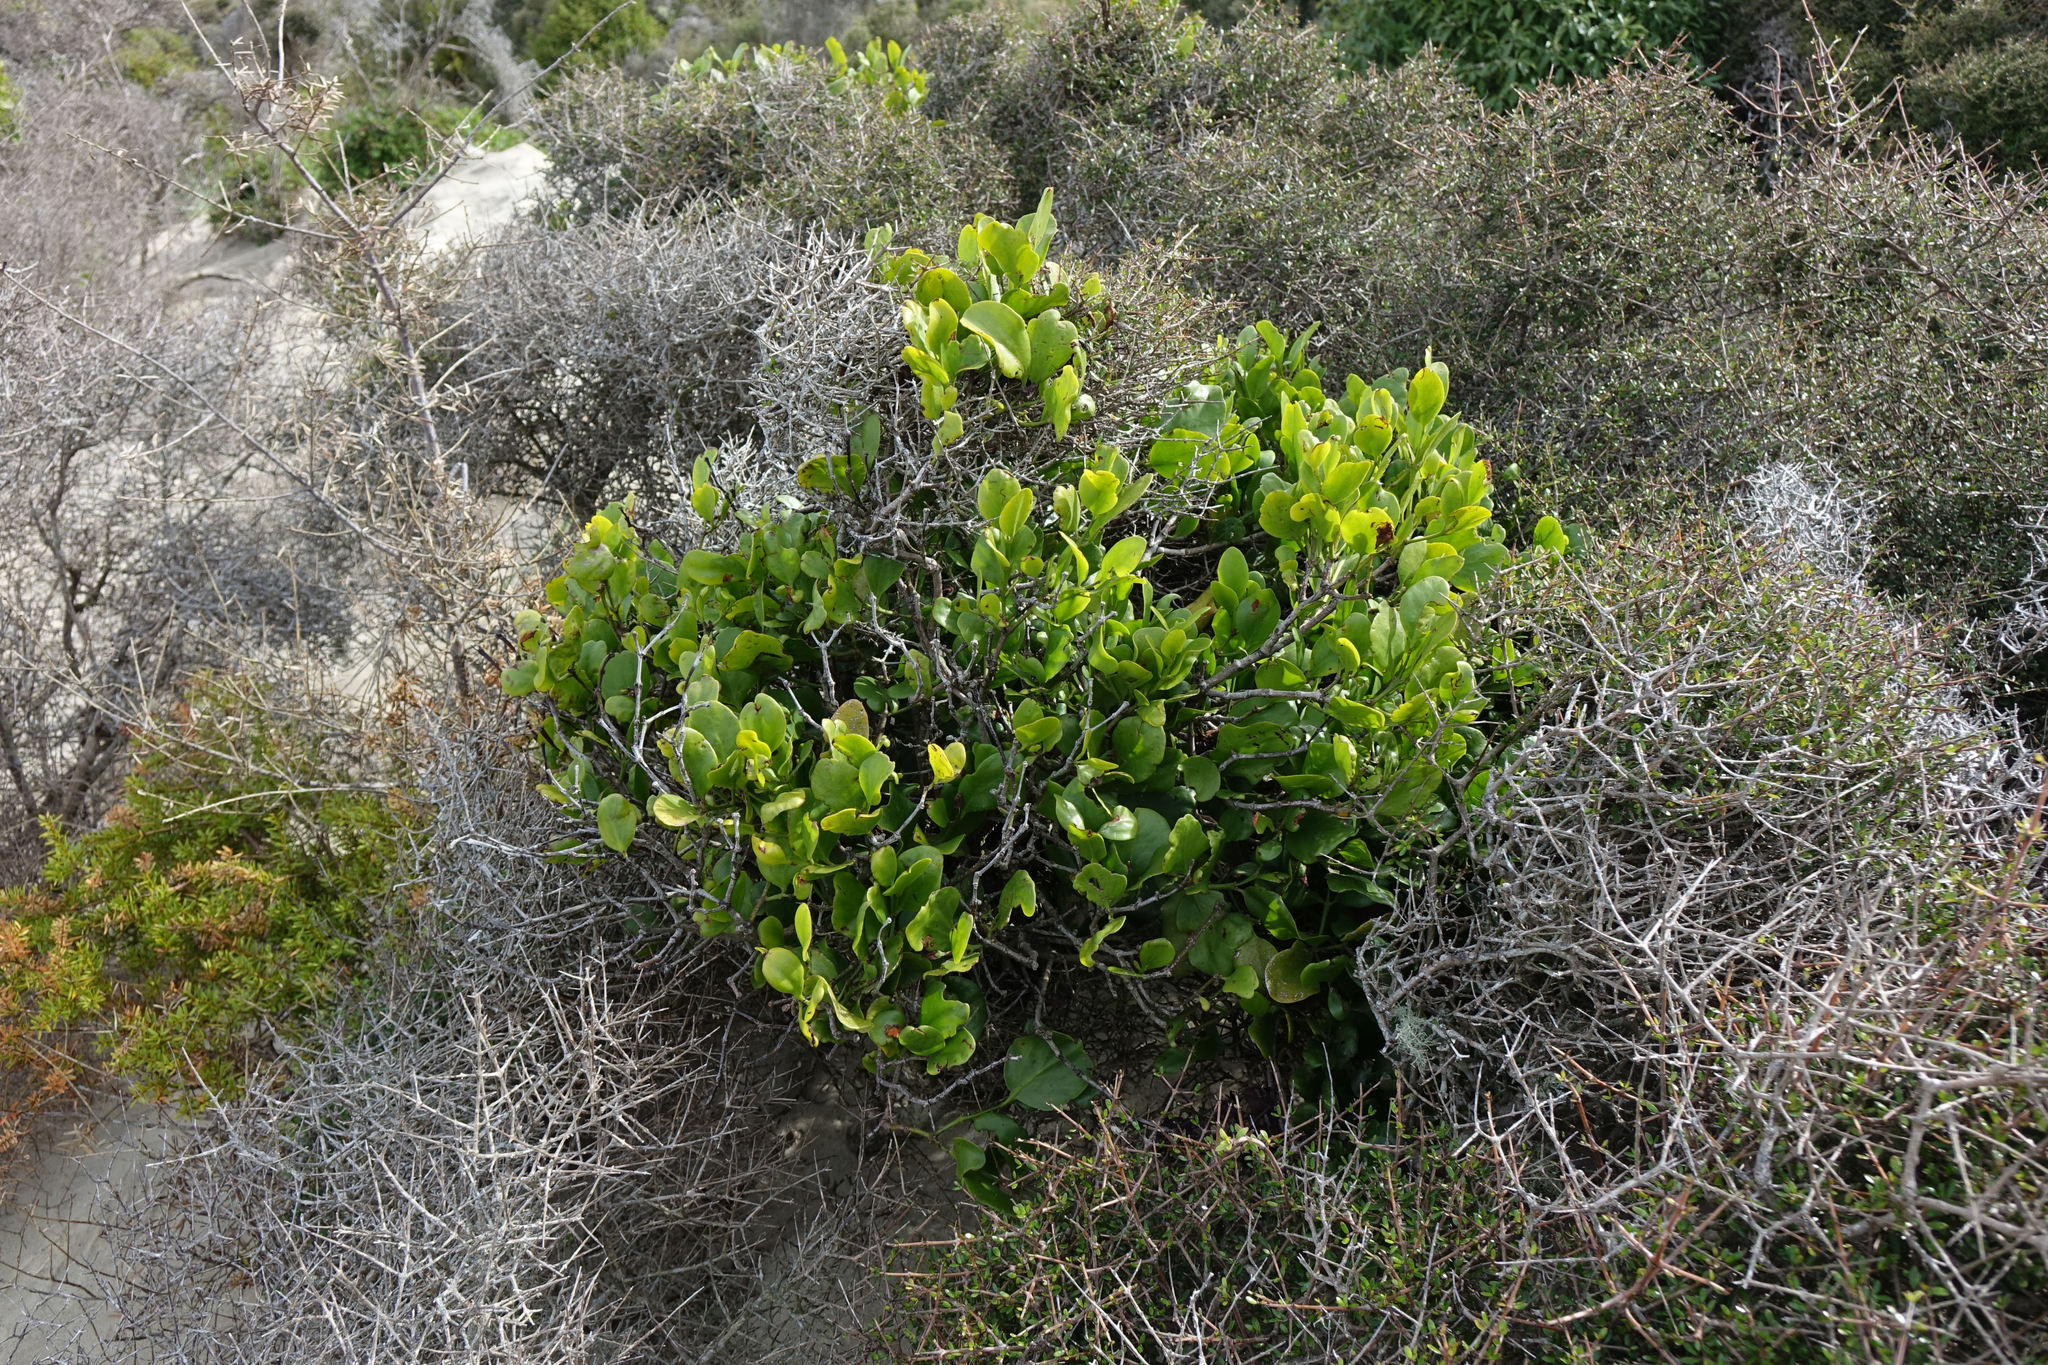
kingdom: Plantae
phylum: Tracheophyta
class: Magnoliopsida
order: Santalales
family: Loranthaceae
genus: Ileostylus
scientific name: Ileostylus micranthus
